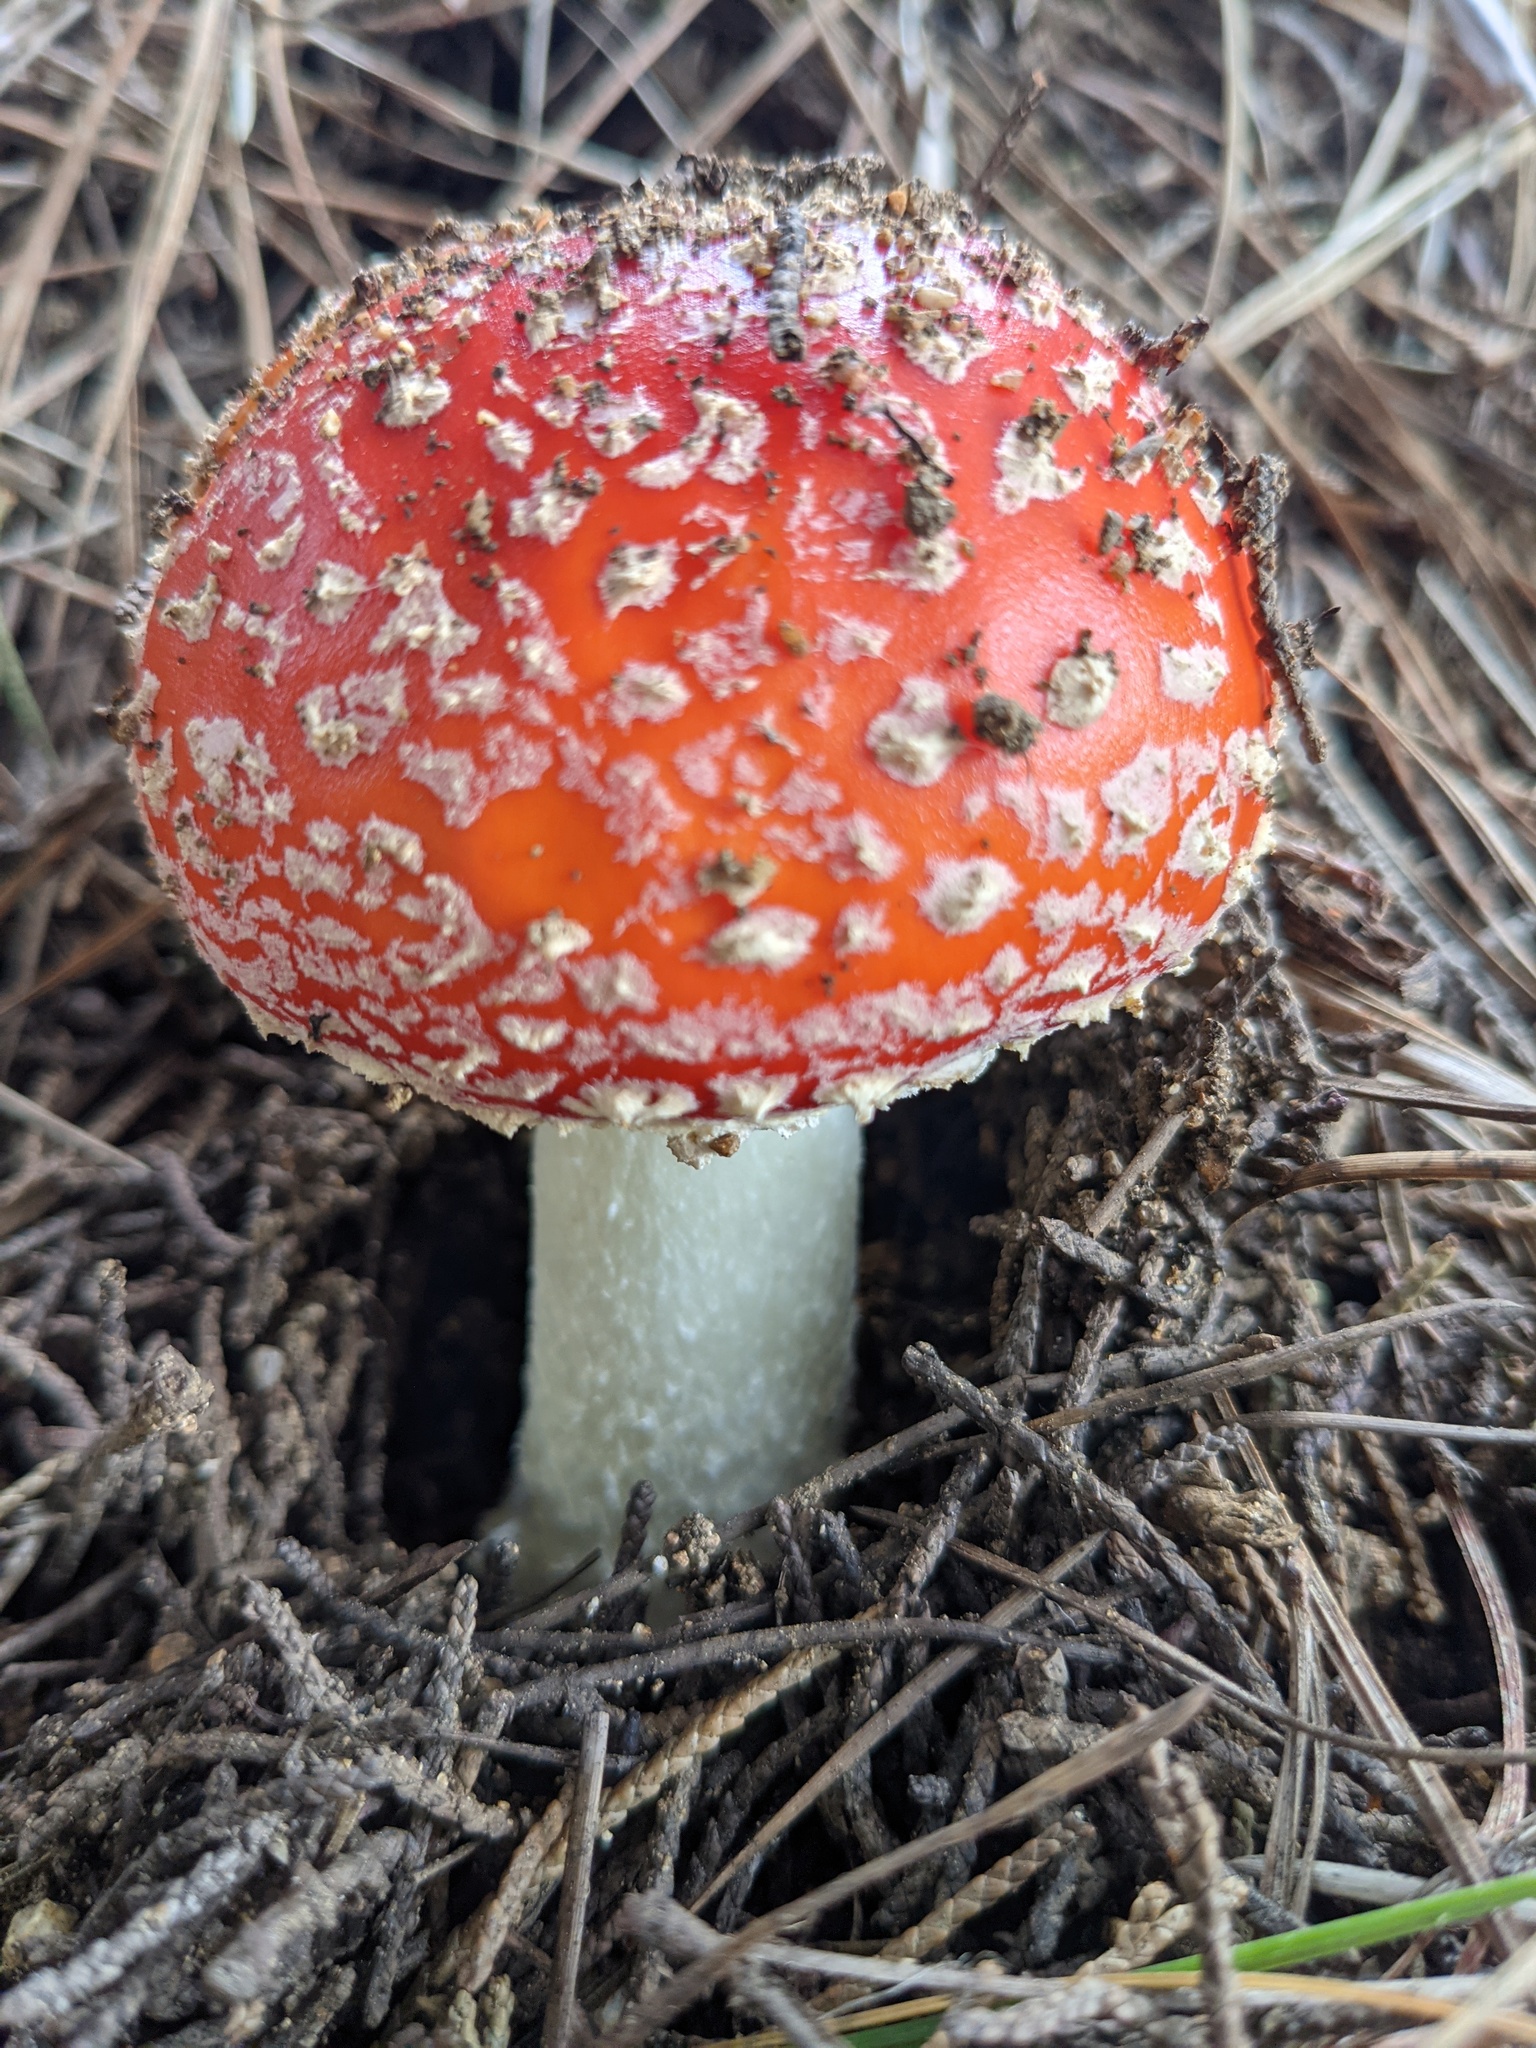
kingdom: Fungi
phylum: Basidiomycota
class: Agaricomycetes
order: Agaricales
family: Amanitaceae
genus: Amanita
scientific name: Amanita muscaria
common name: Fly agaric
